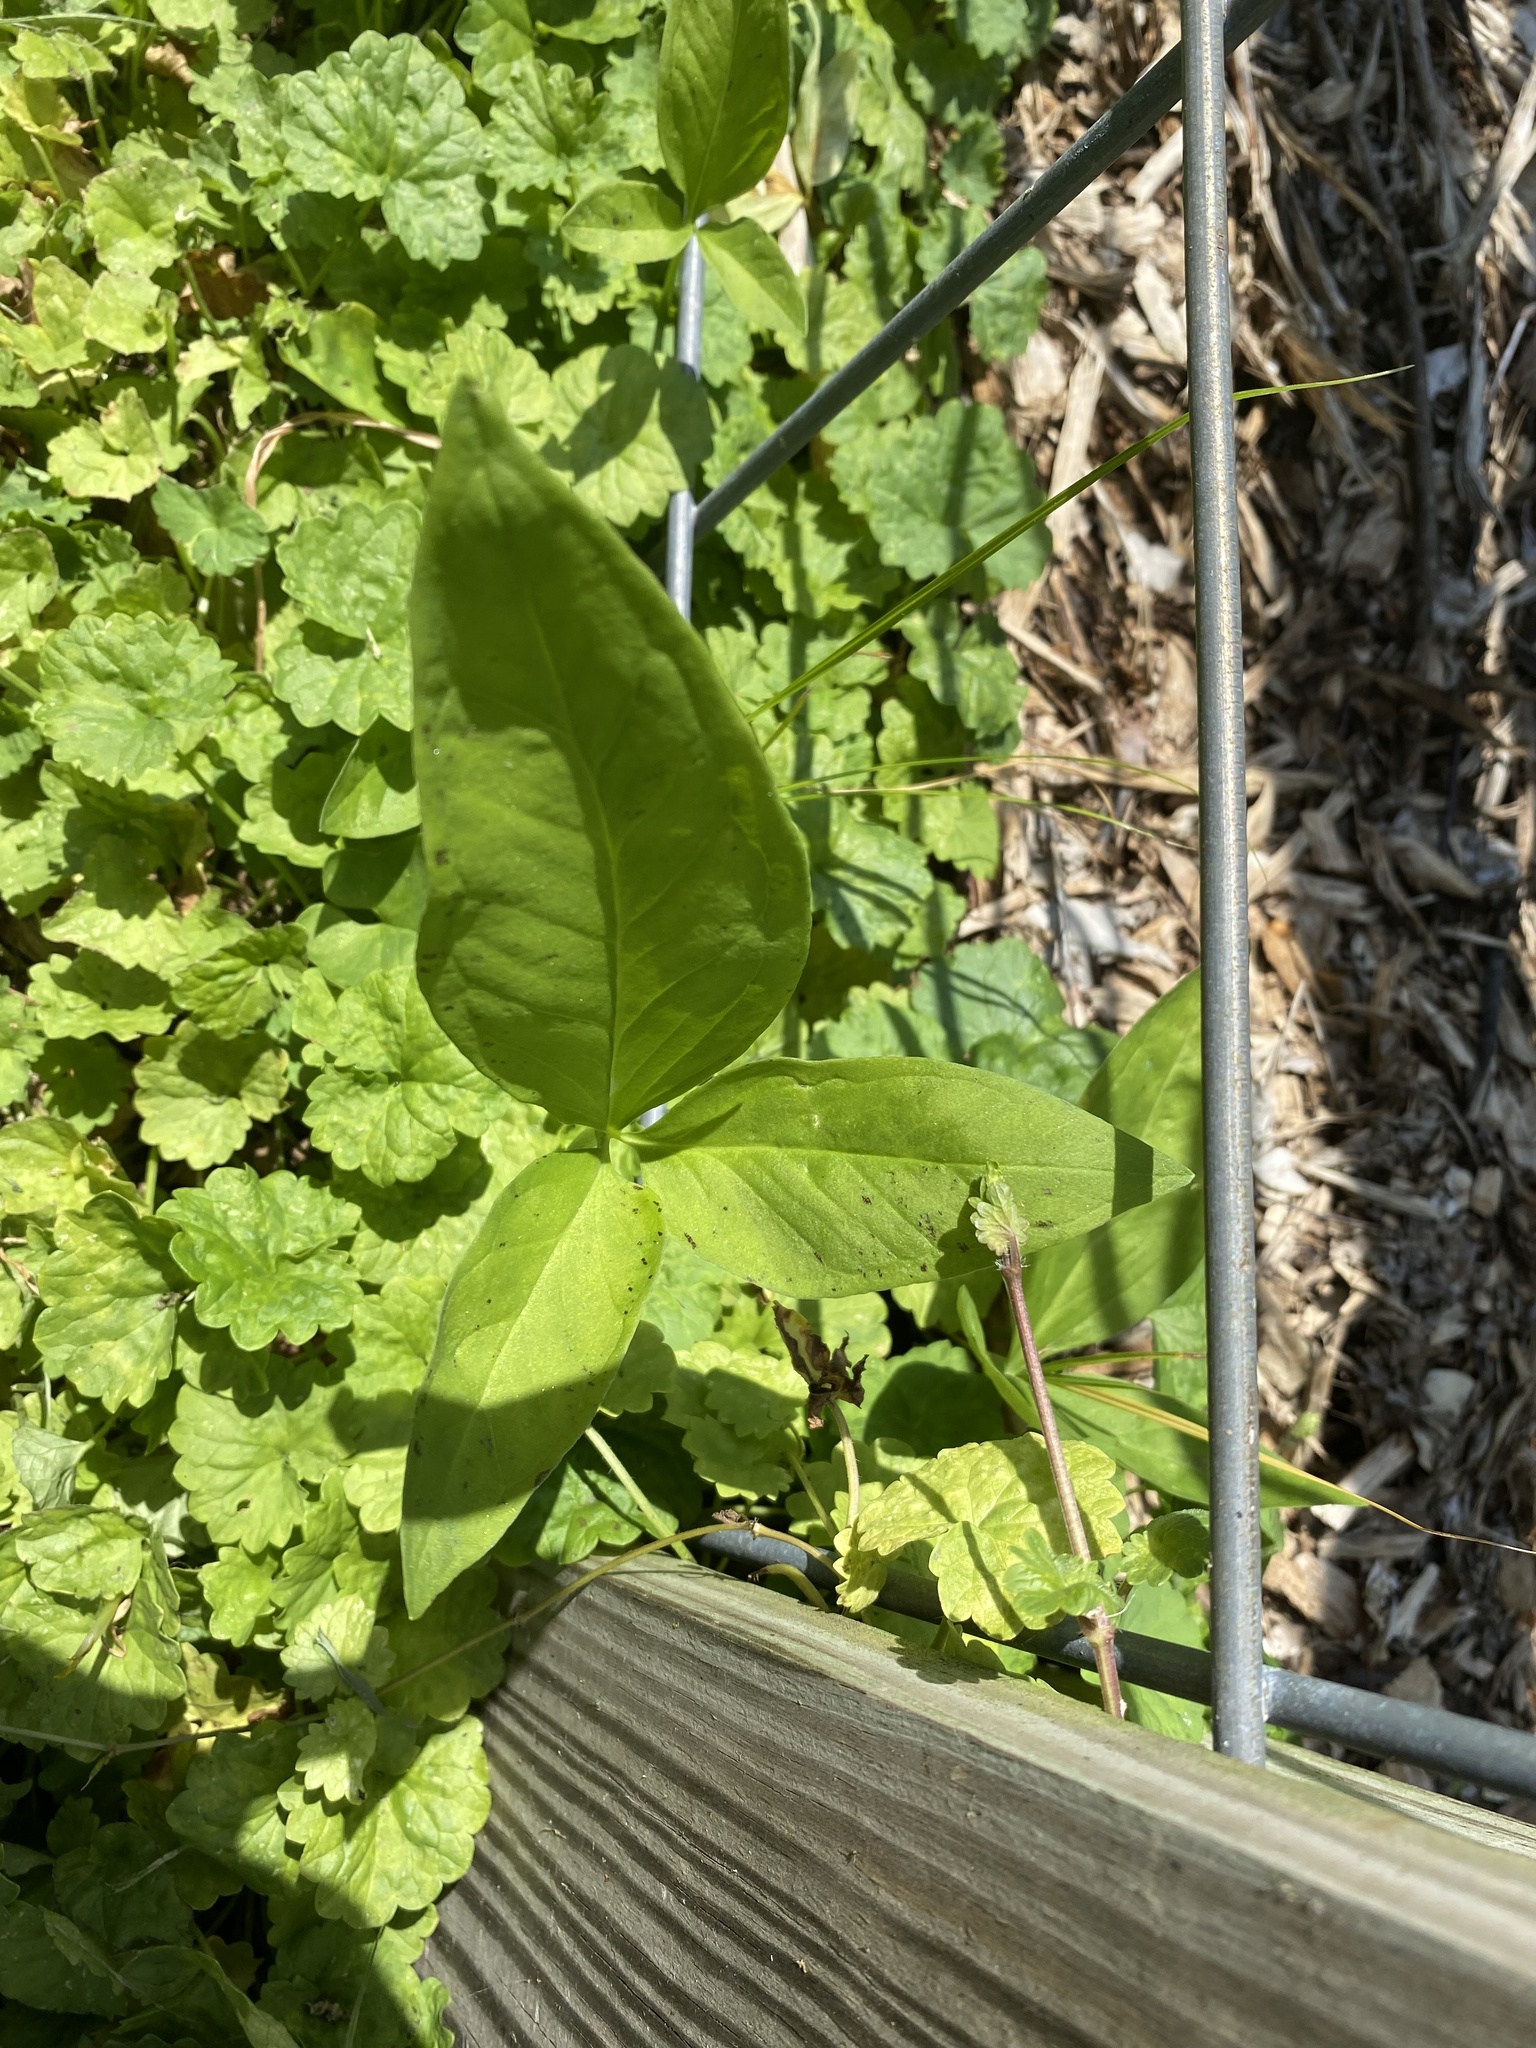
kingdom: Plantae
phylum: Tracheophyta
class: Liliopsida
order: Alismatales
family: Araceae
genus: Pinellia
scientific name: Pinellia ternata
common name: Pinellia
